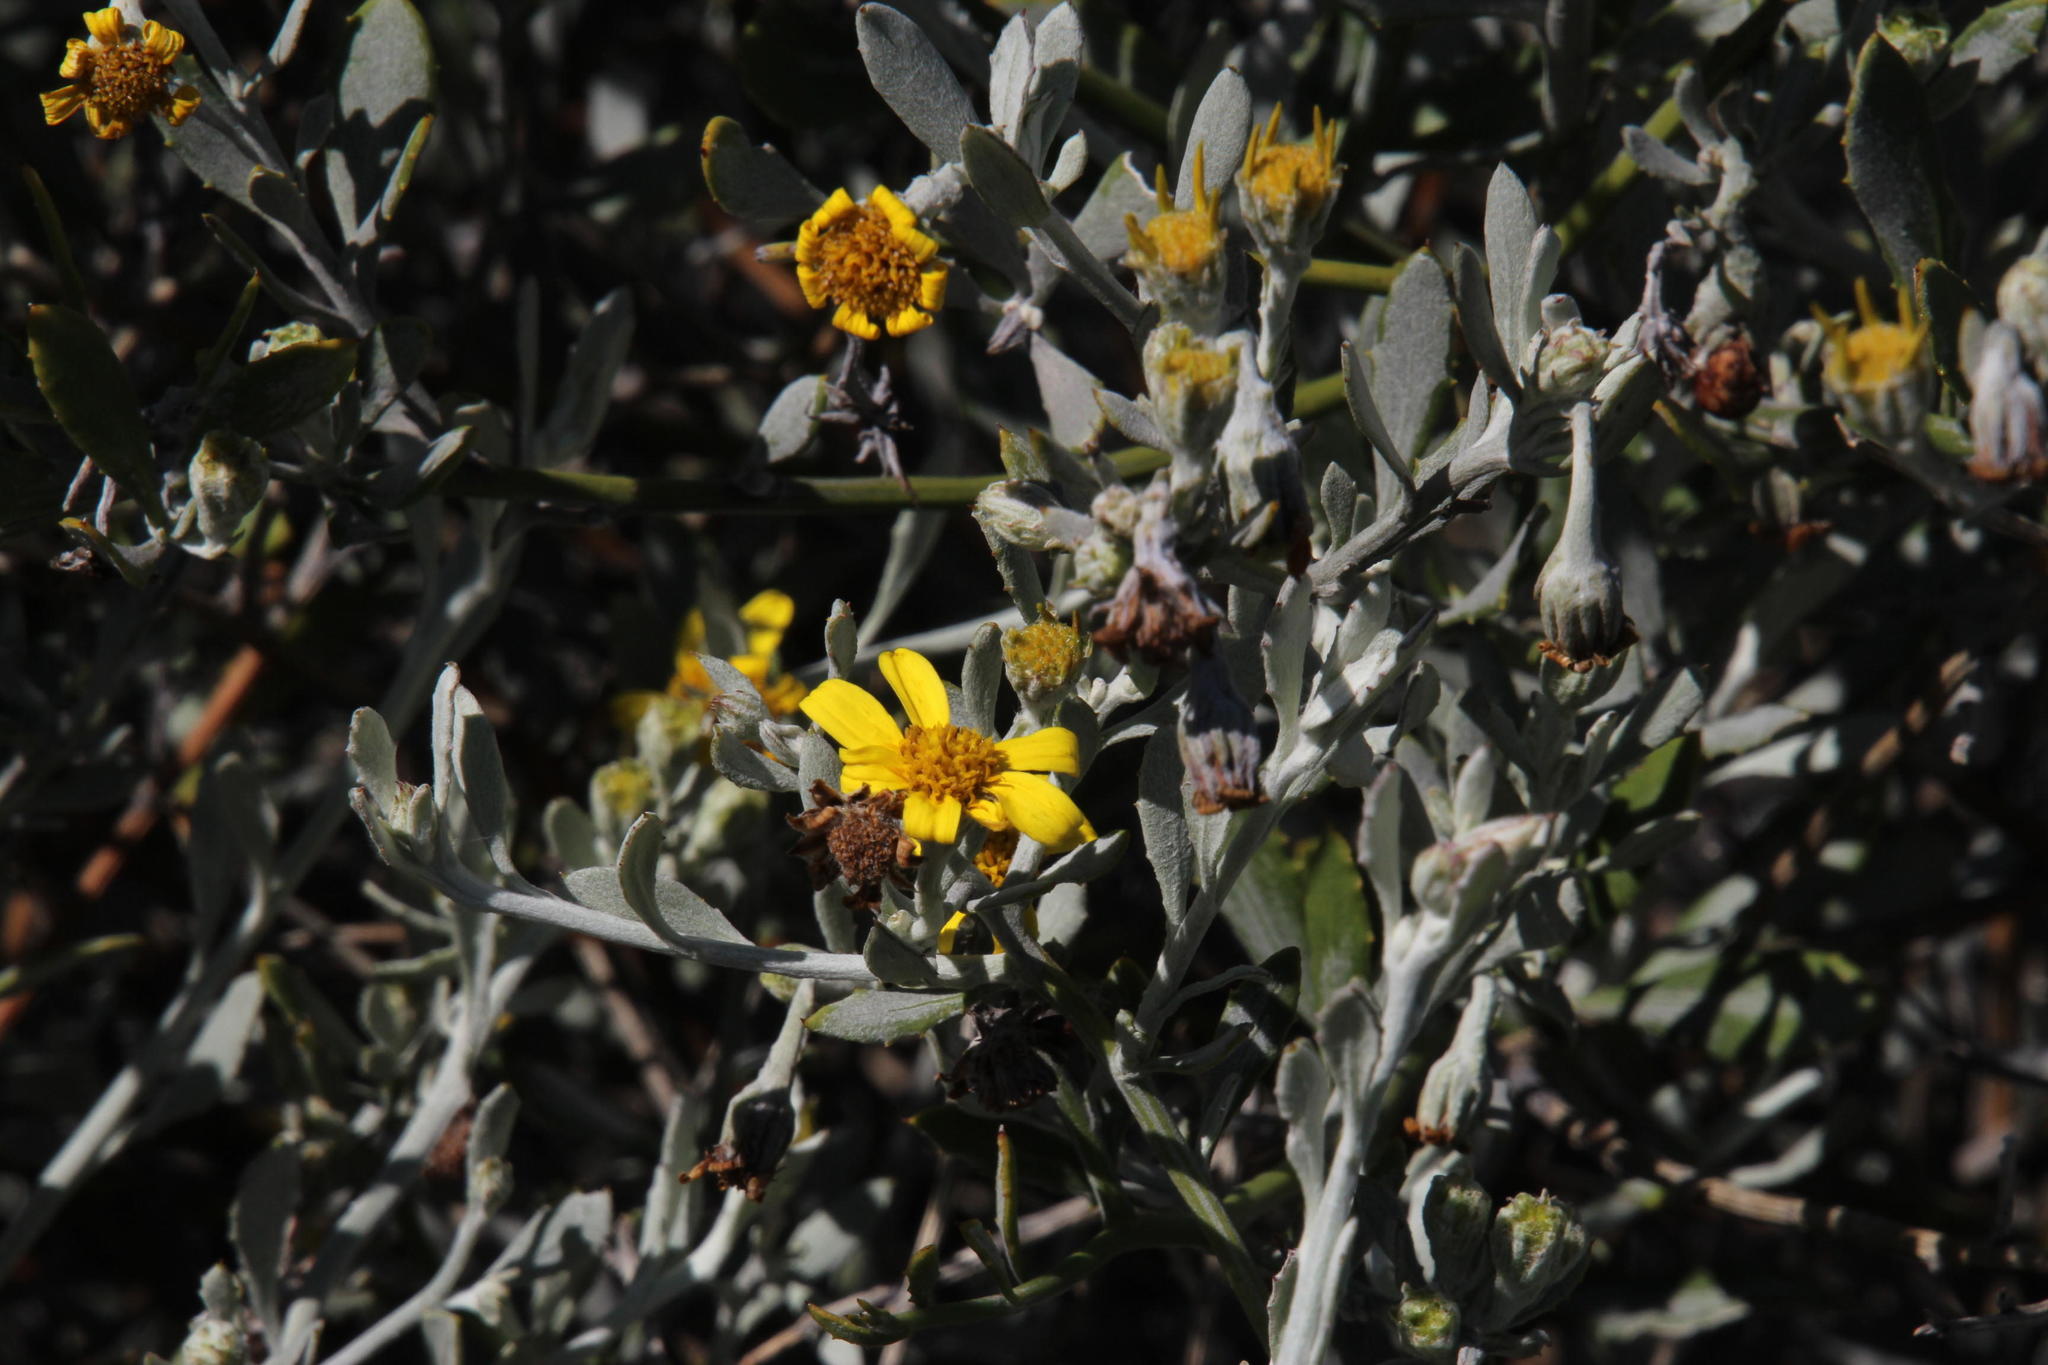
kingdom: Plantae
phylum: Tracheophyta
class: Magnoliopsida
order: Asterales
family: Asteraceae
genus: Osteospermum
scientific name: Osteospermum incanum
